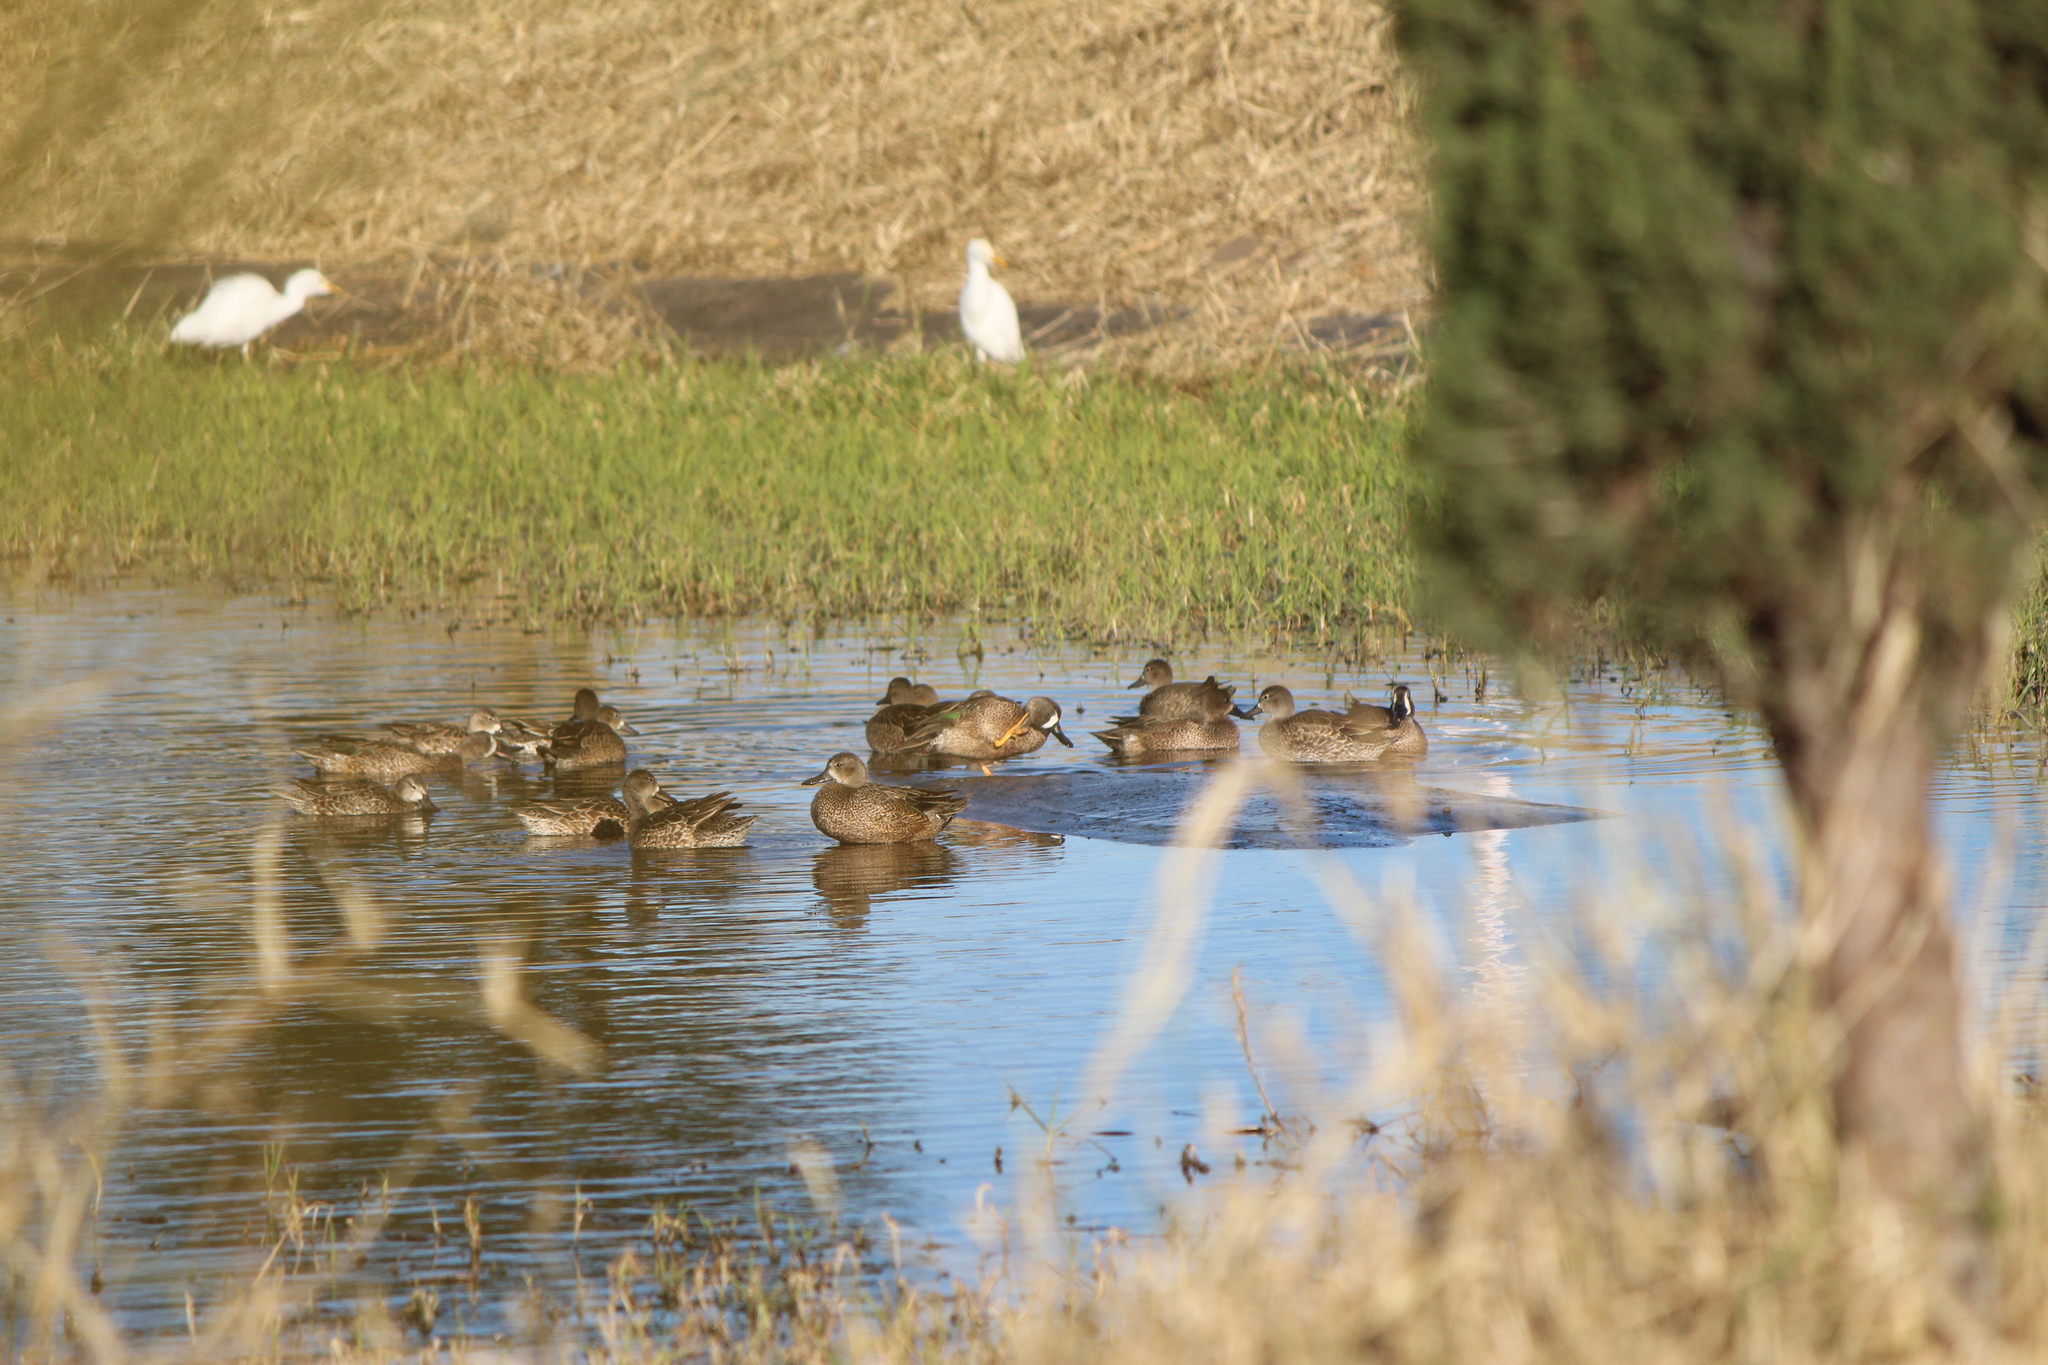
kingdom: Animalia
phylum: Chordata
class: Aves
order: Anseriformes
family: Anatidae
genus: Spatula
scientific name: Spatula discors
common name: Blue-winged teal
